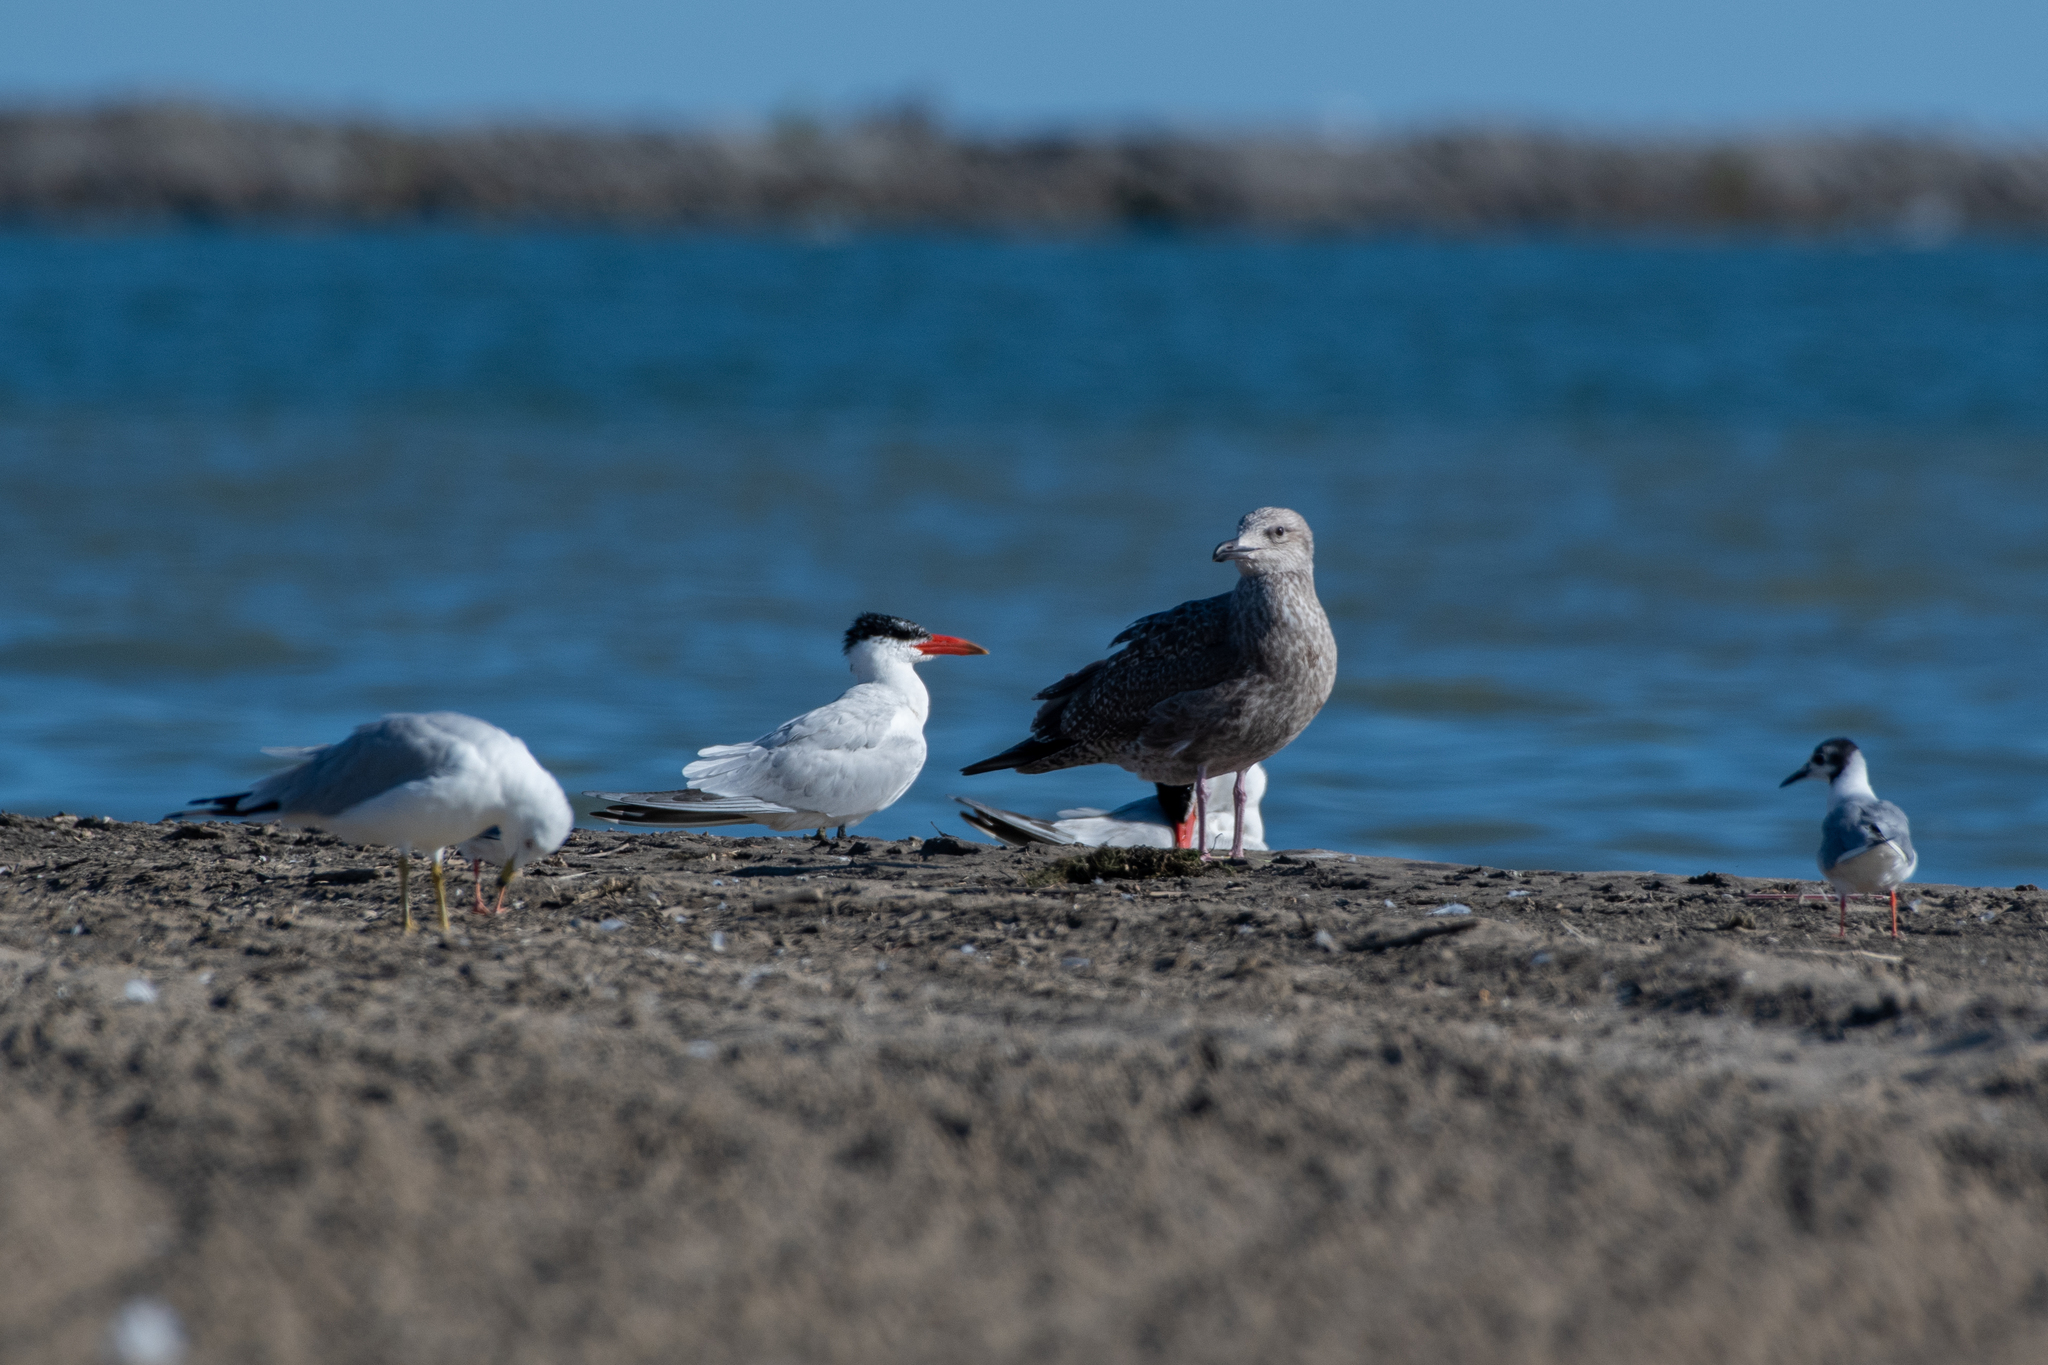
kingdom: Animalia
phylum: Chordata
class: Aves
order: Charadriiformes
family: Laridae
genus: Larus
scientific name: Larus argentatus
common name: Herring gull
